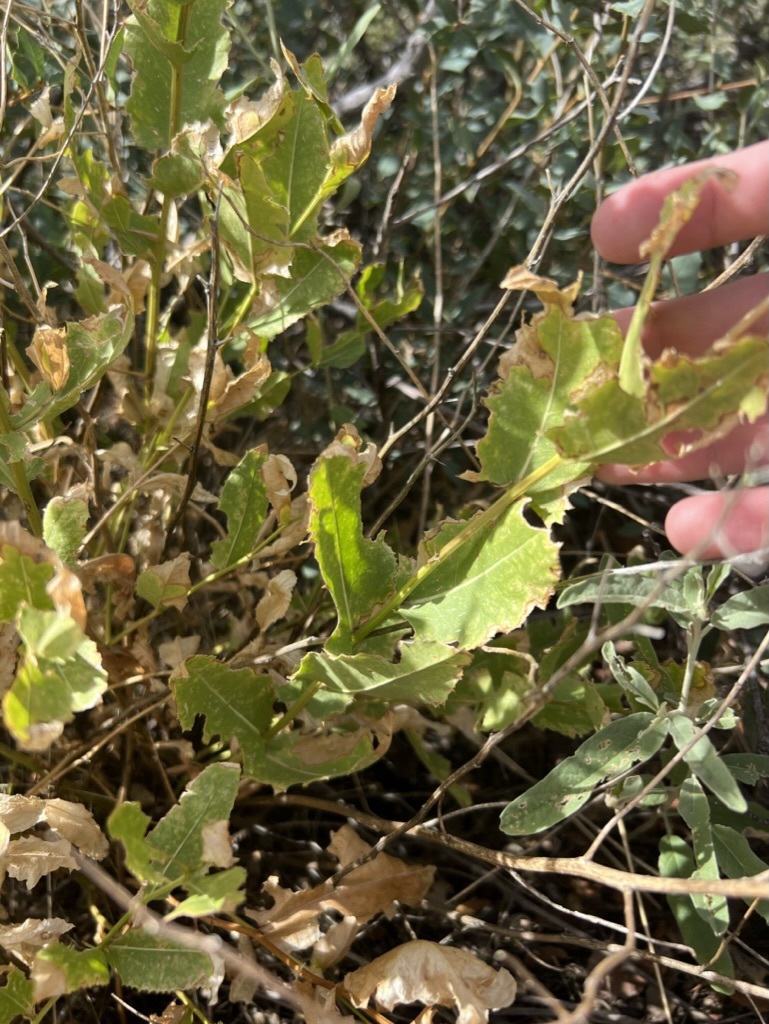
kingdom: Plantae
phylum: Tracheophyta
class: Magnoliopsida
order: Asterales
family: Asteraceae
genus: Acourtia
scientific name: Acourtia wrightii
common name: Brownfoot
